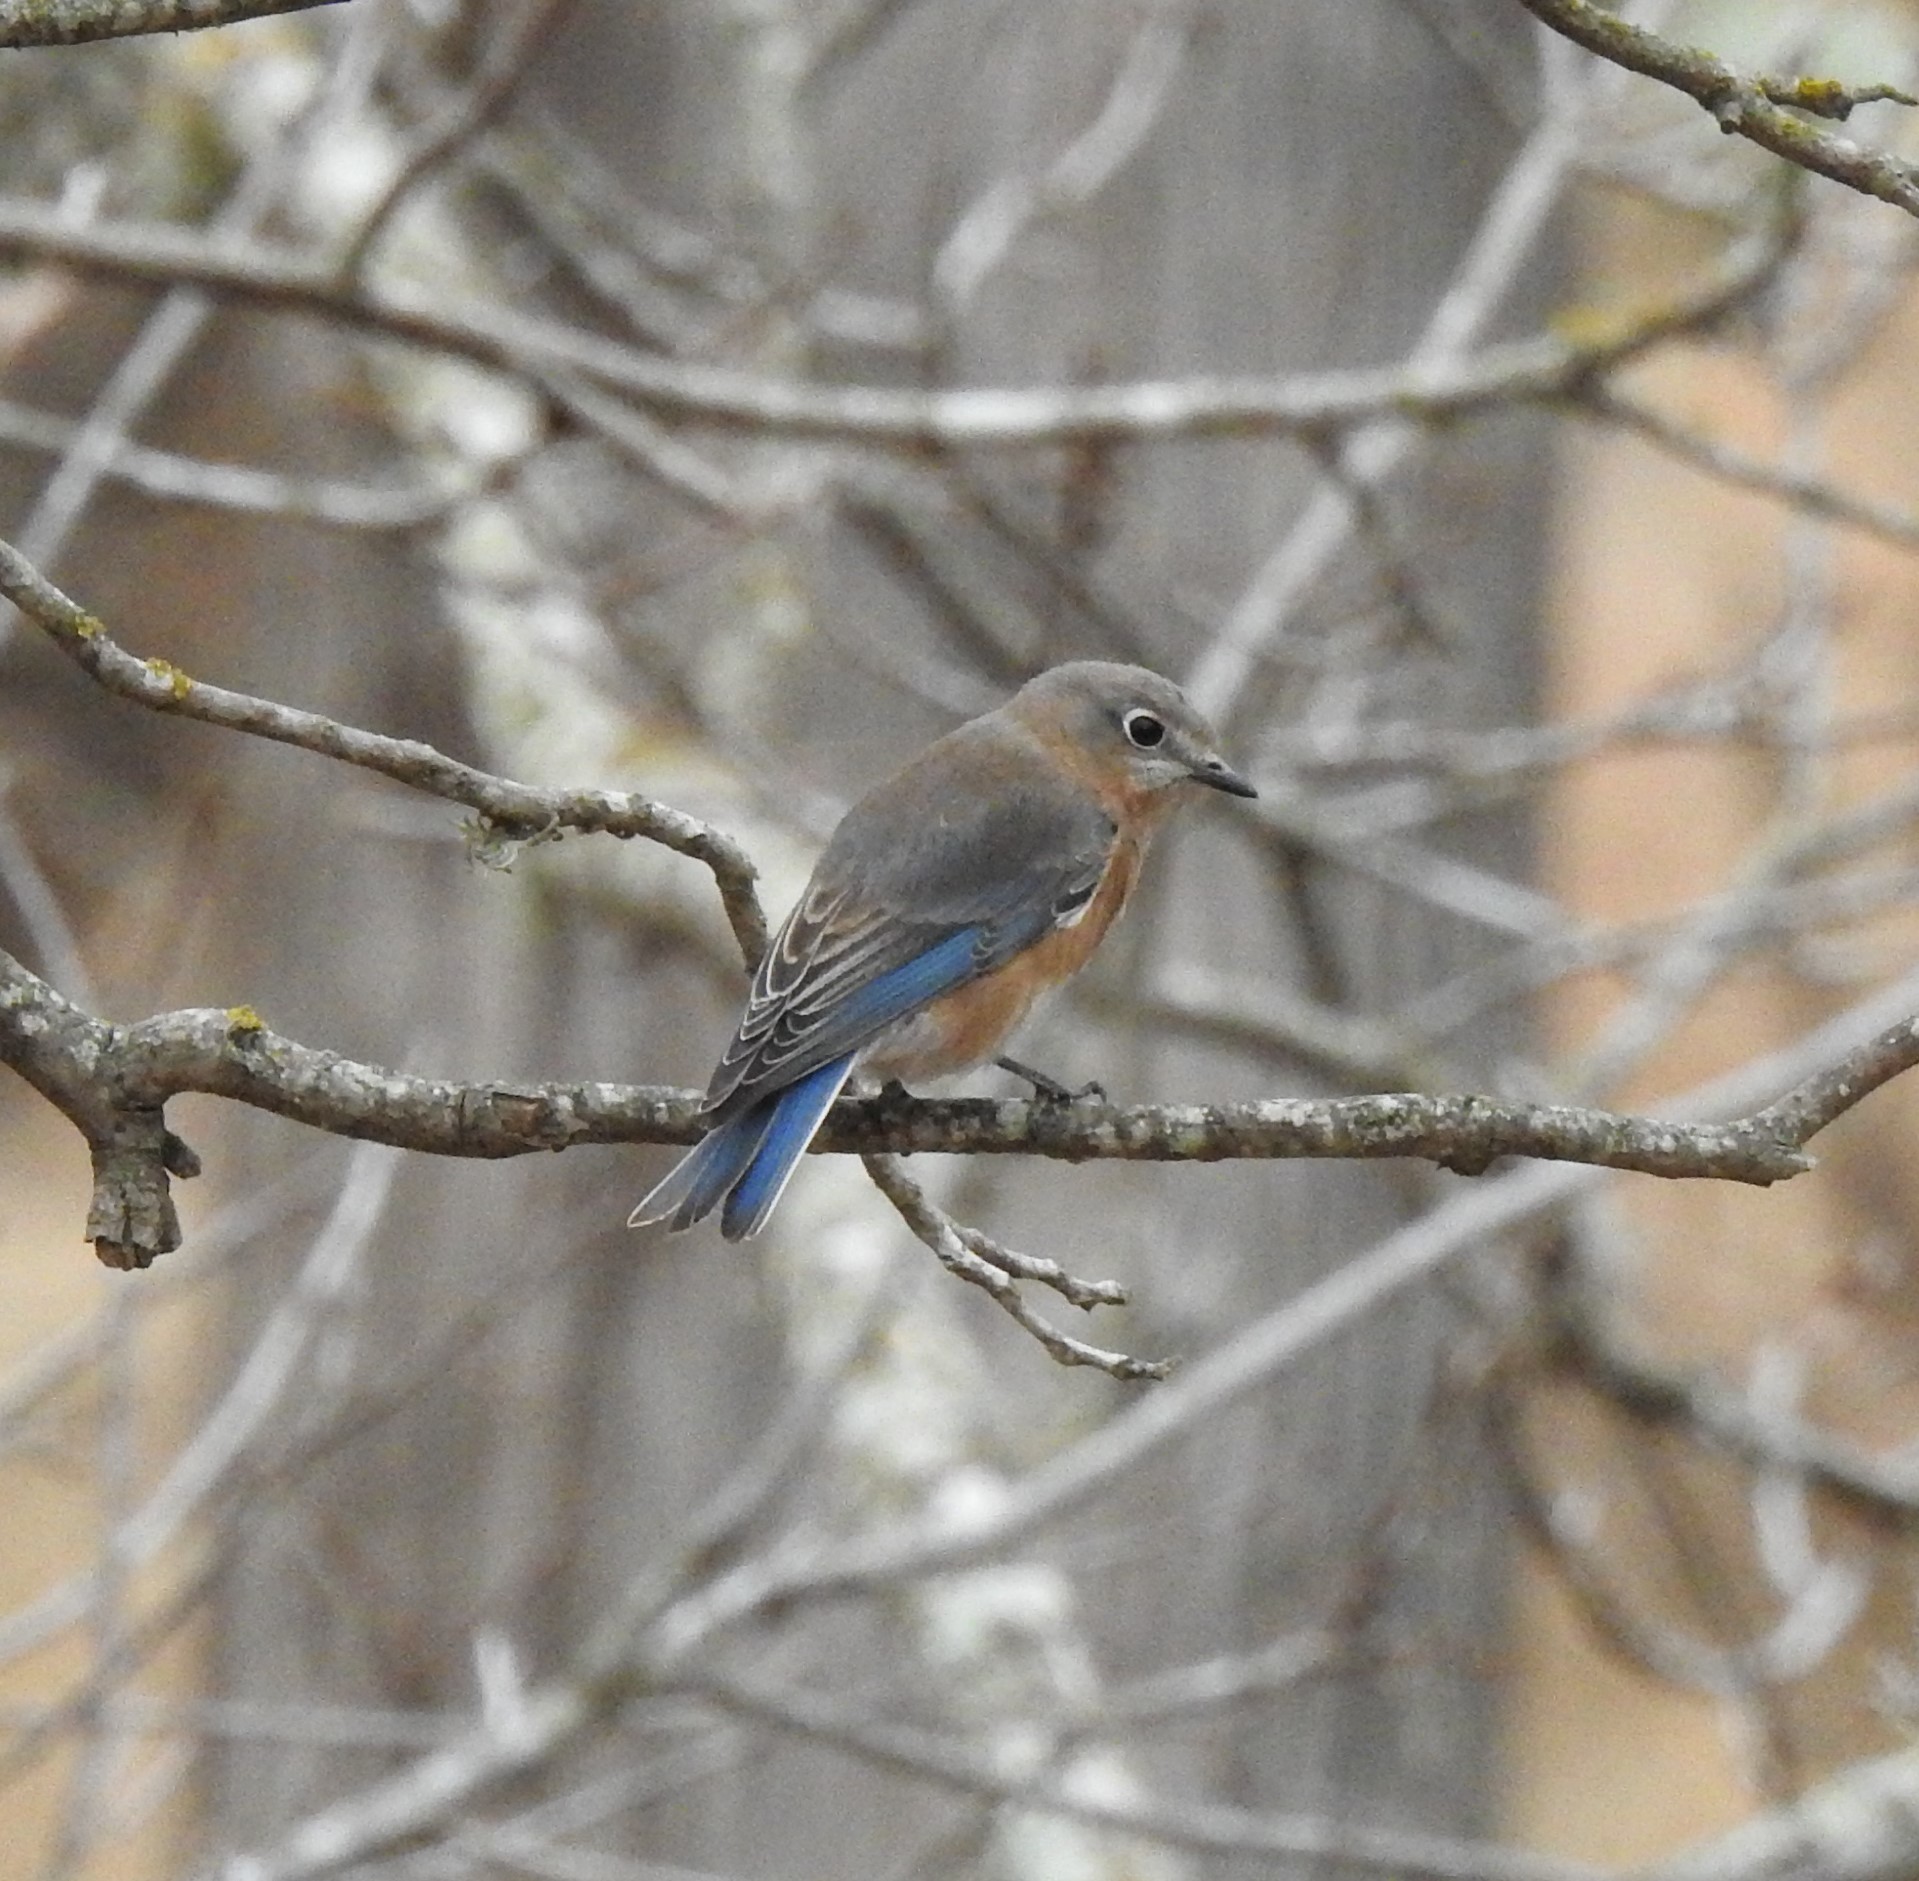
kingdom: Animalia
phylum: Chordata
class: Aves
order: Passeriformes
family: Turdidae
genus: Sialia
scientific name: Sialia sialis
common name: Eastern bluebird
